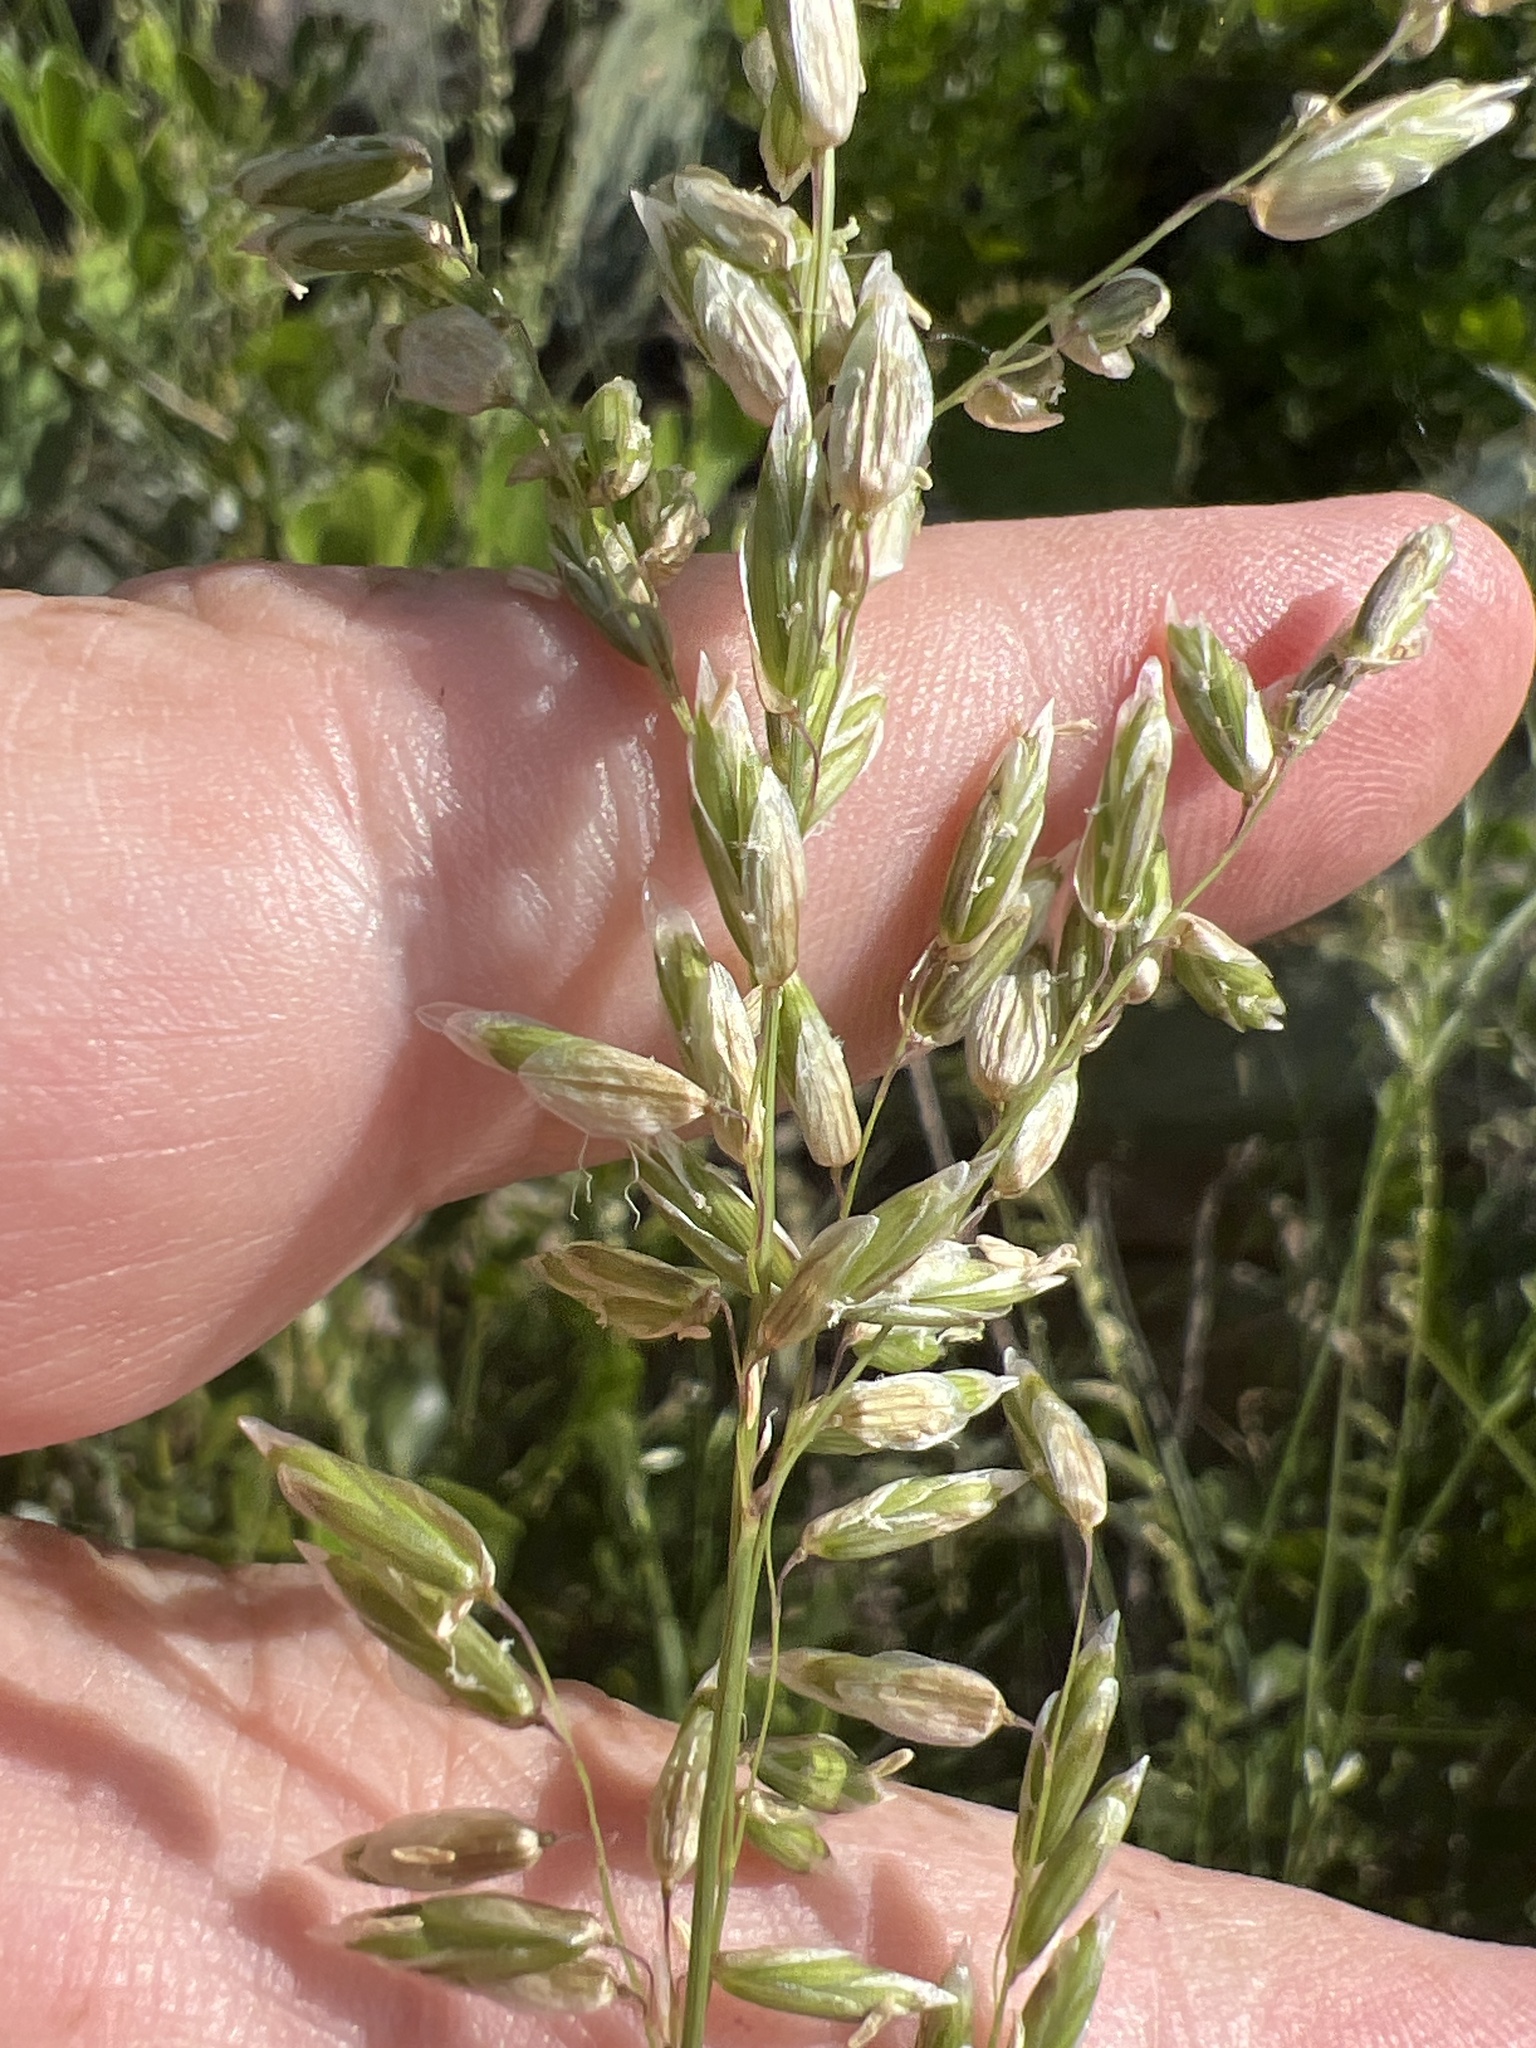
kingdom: Plantae
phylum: Tracheophyta
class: Liliopsida
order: Poales
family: Poaceae
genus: Melica
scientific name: Melica nitens
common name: Three-flower melic
